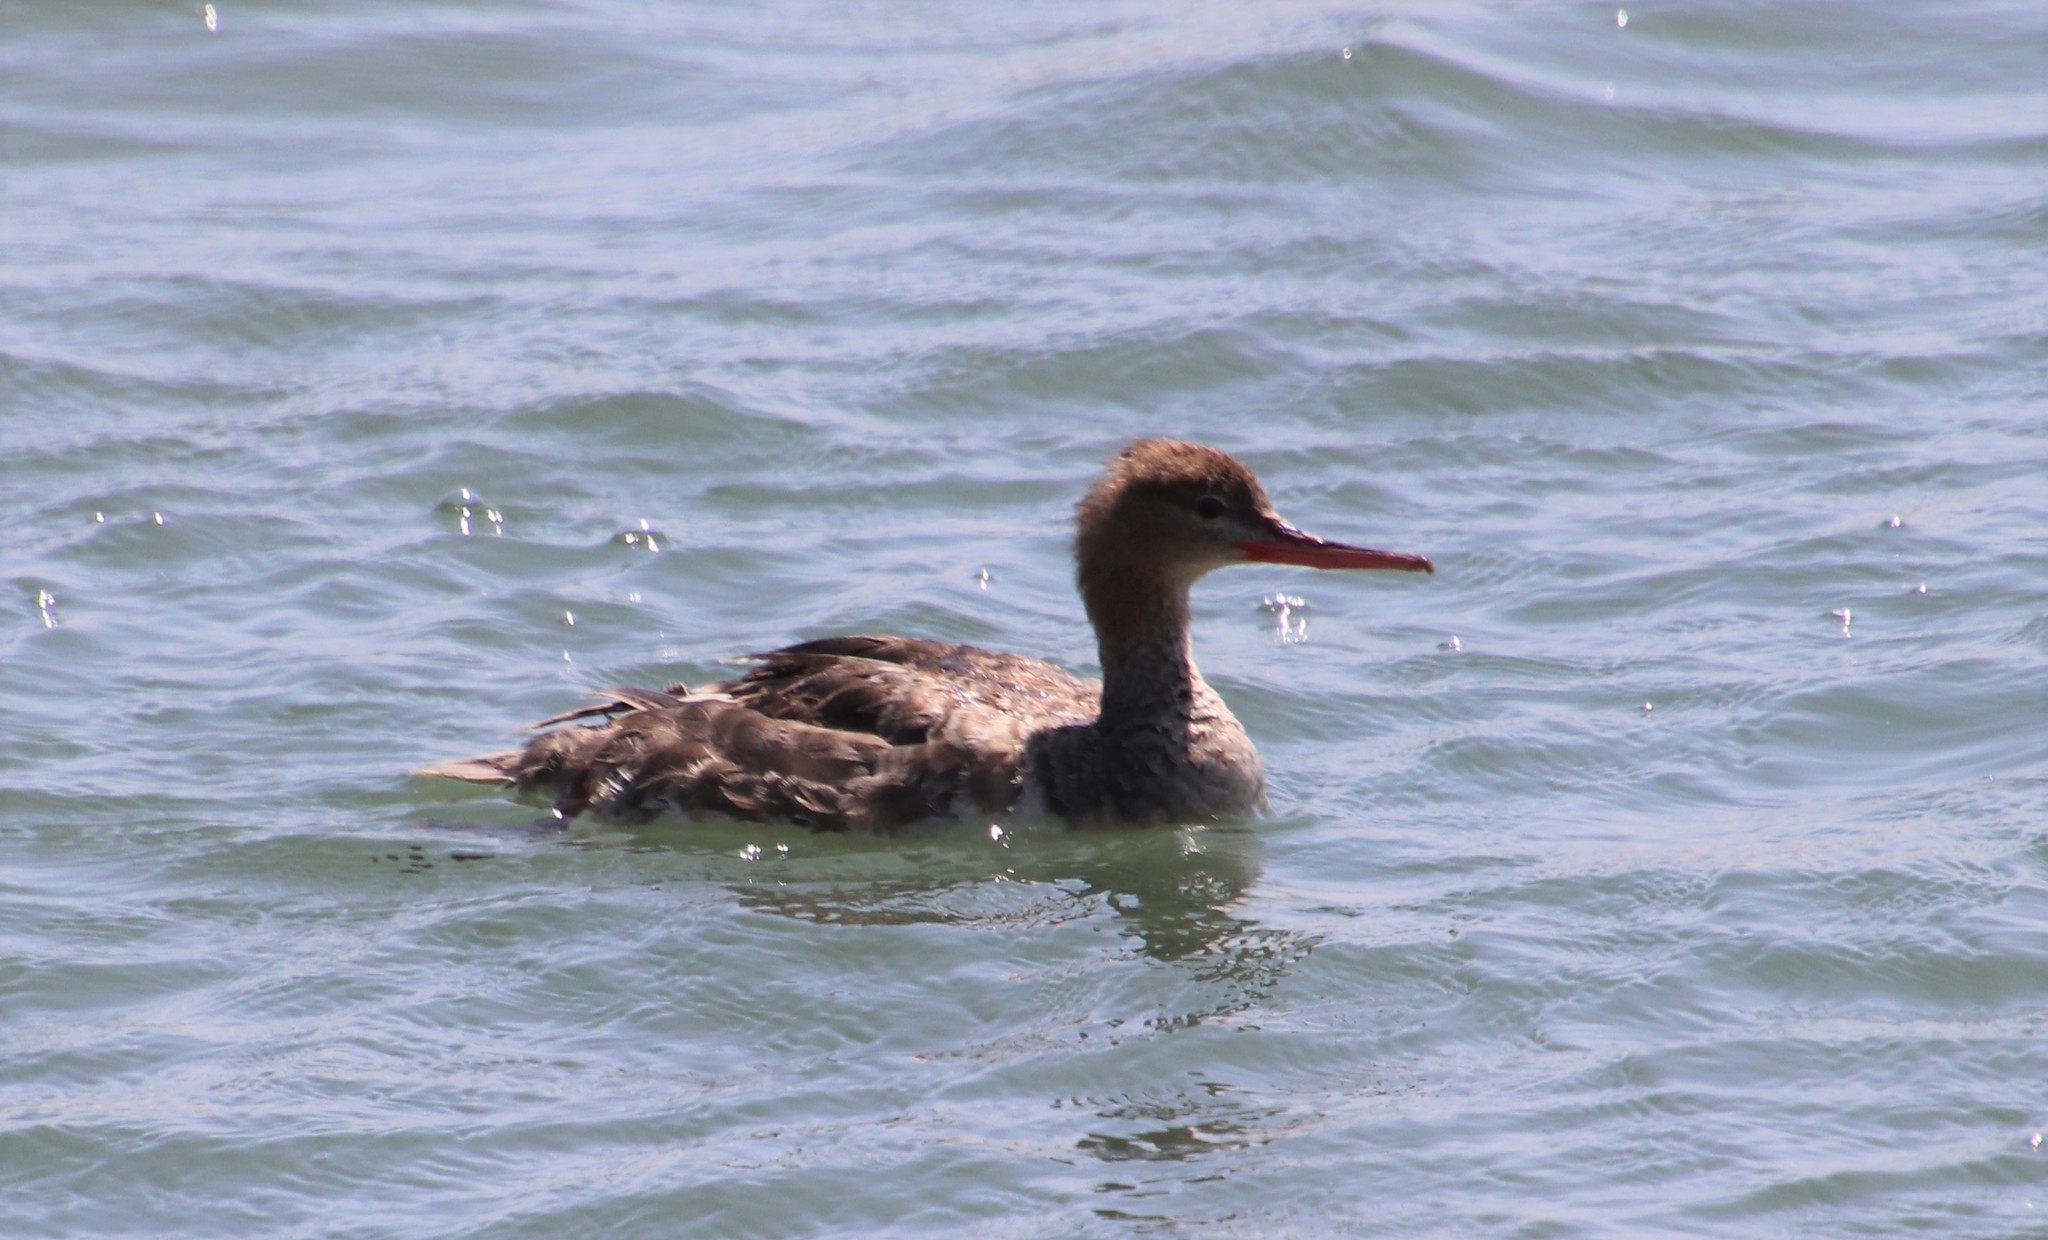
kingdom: Animalia
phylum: Chordata
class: Aves
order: Anseriformes
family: Anatidae
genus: Mergus
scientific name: Mergus serrator
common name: Red-breasted merganser
